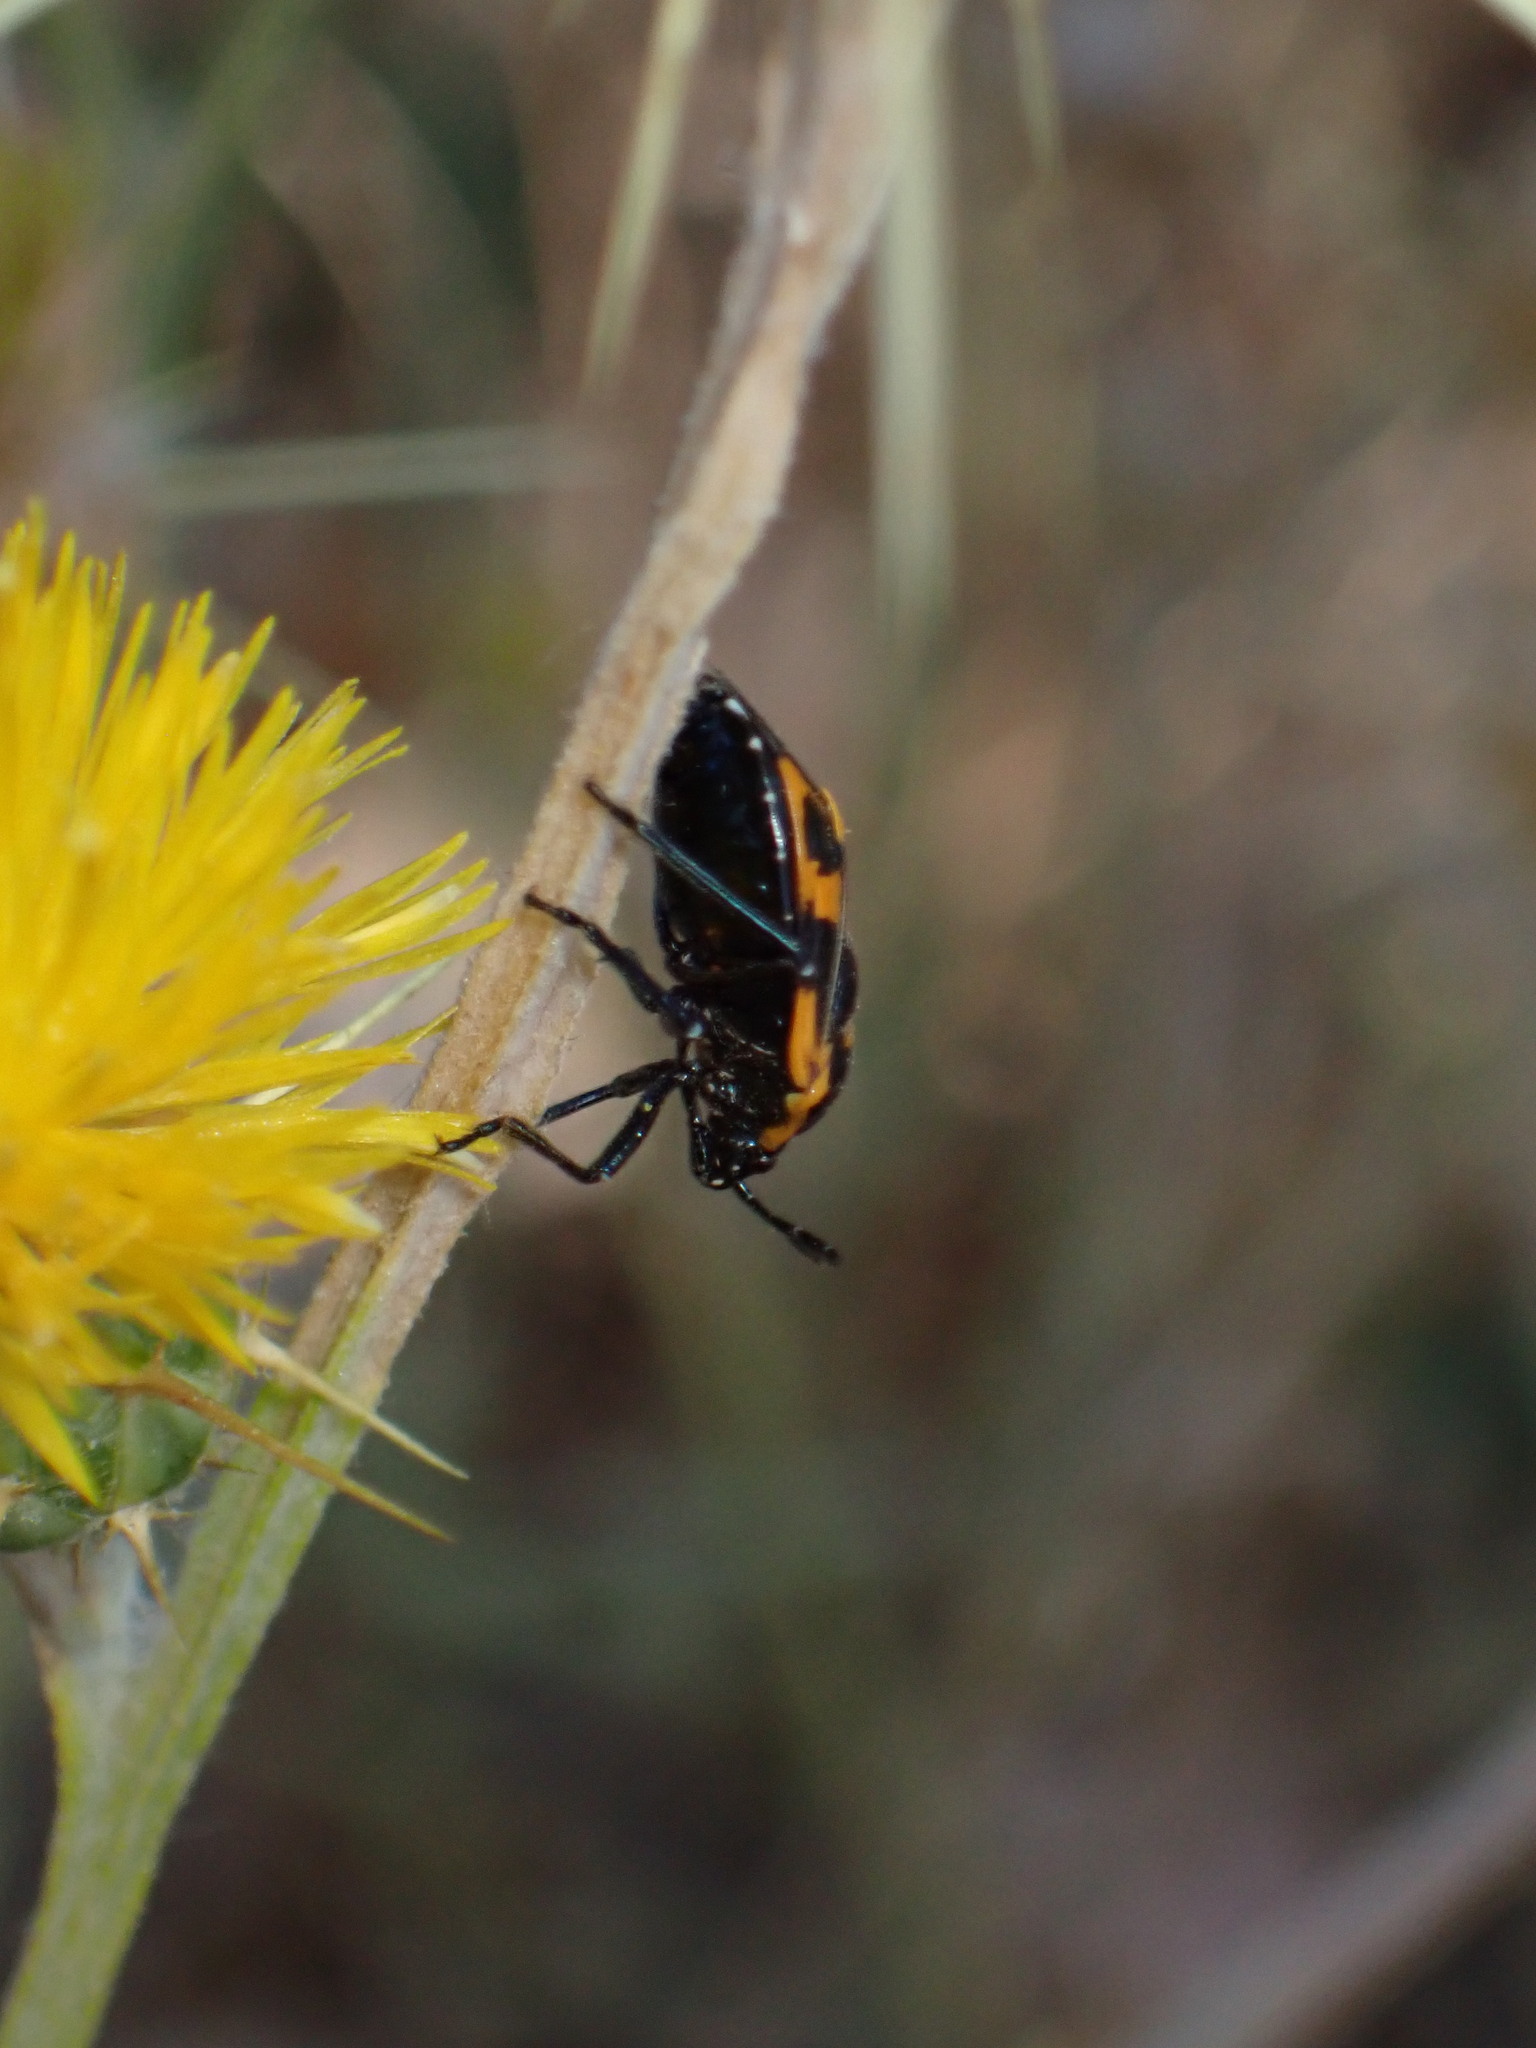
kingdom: Animalia
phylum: Arthropoda
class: Insecta
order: Hemiptera
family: Pentatomidae
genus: Murgantia
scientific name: Murgantia histrionica
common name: Harlequin bug
